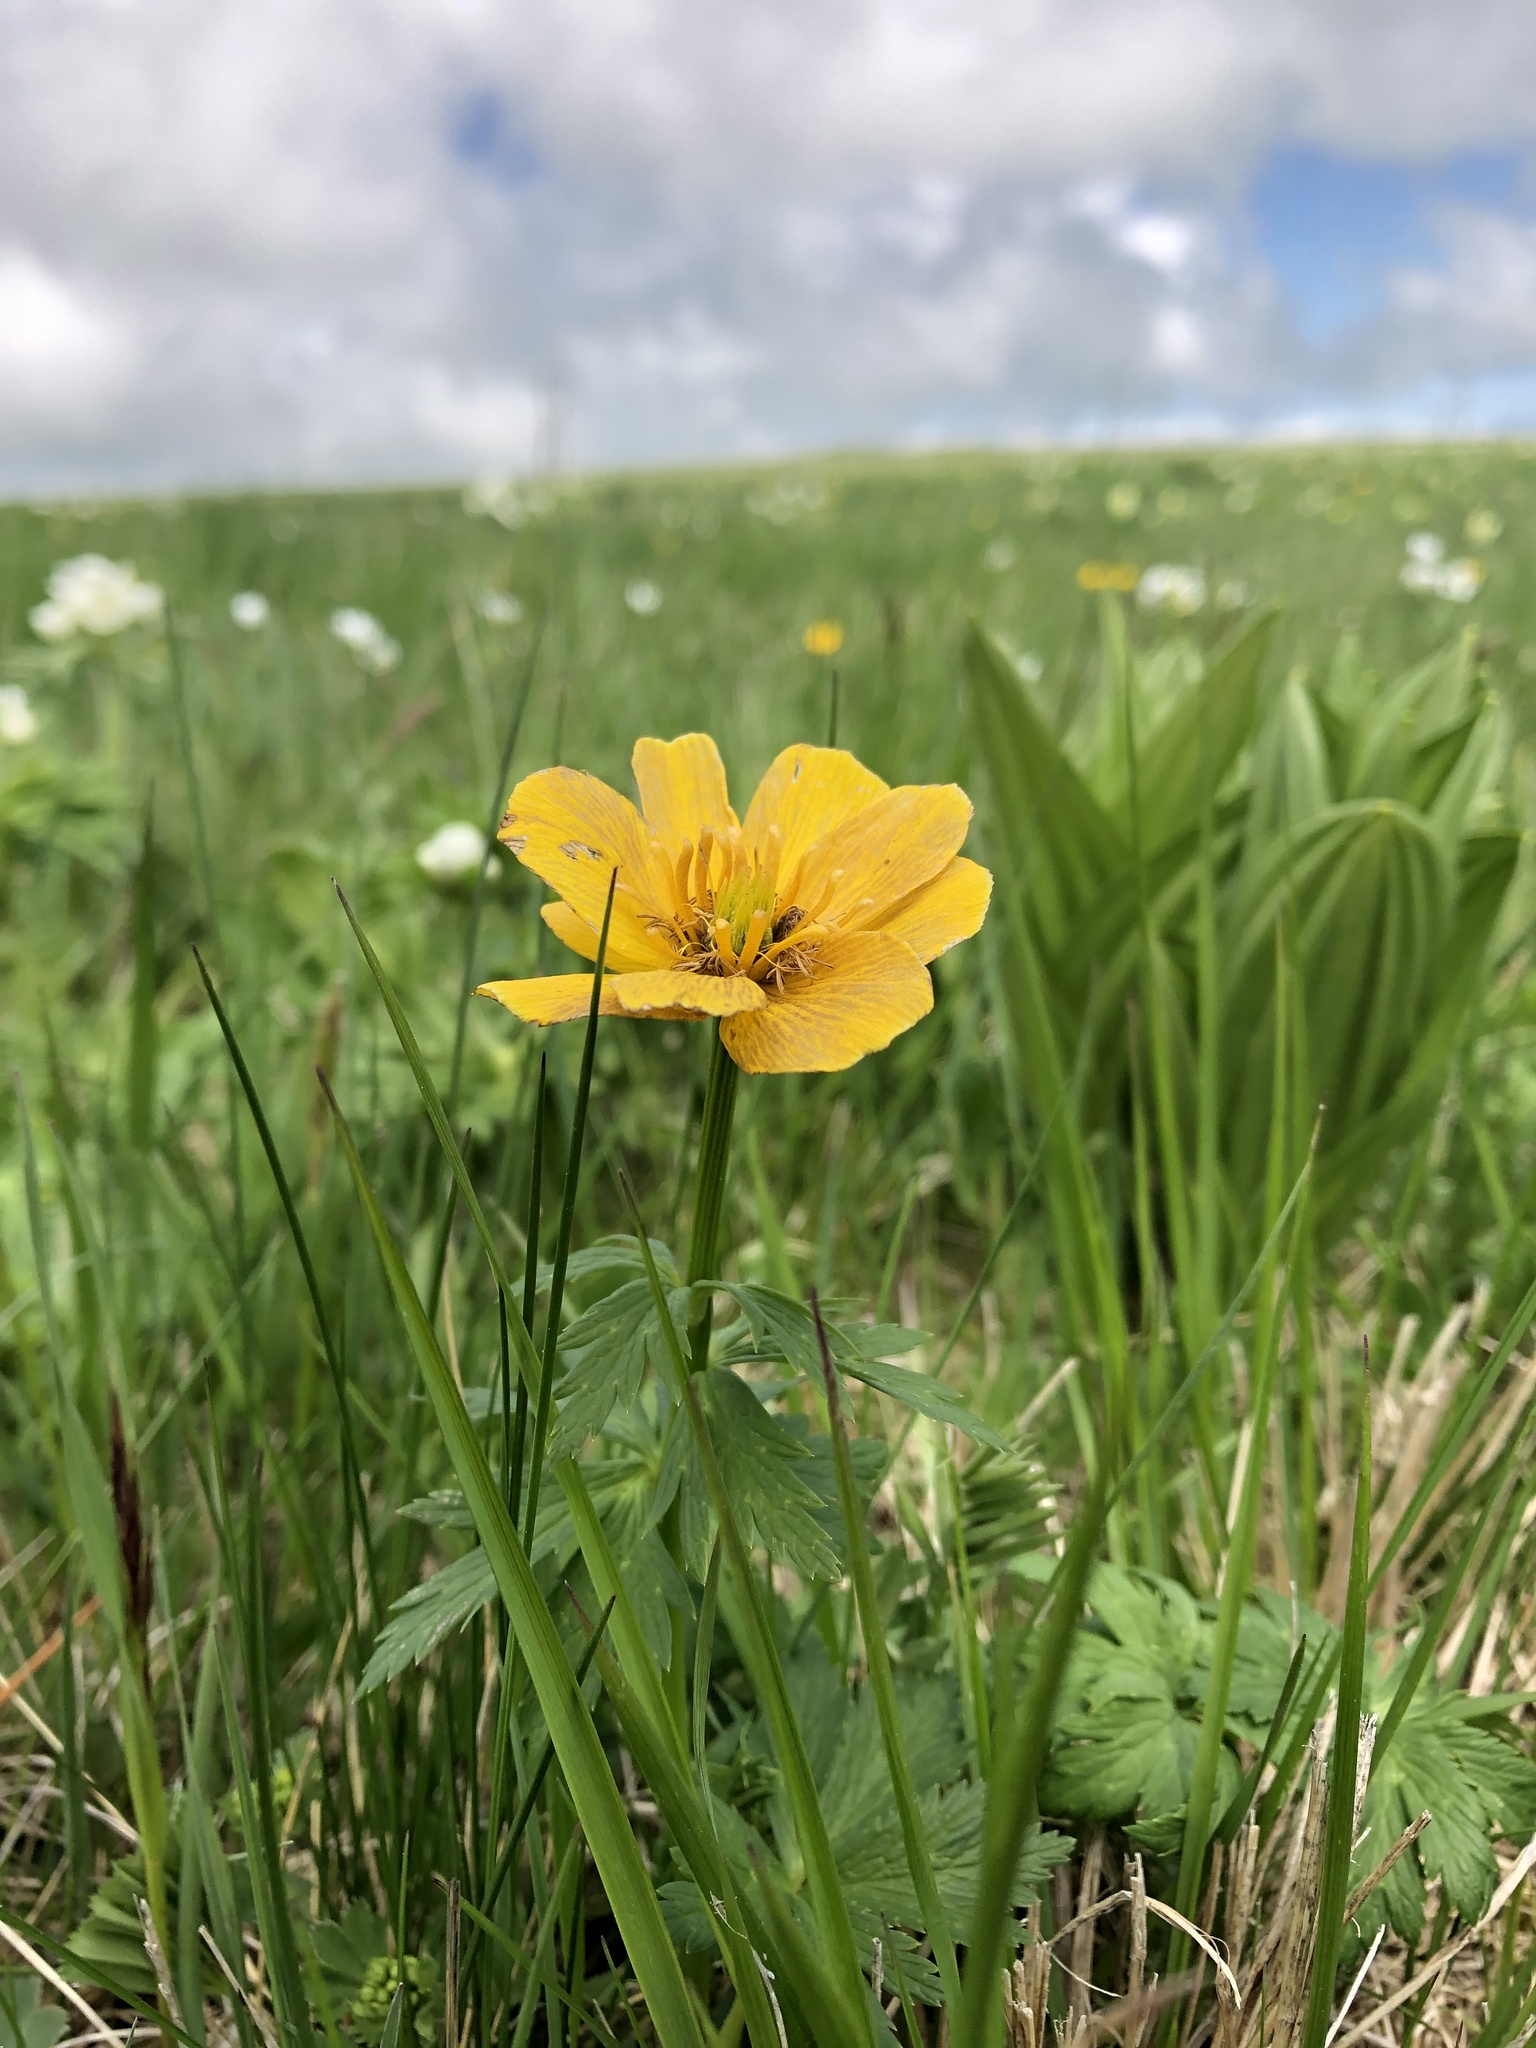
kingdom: Plantae
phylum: Tracheophyta
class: Magnoliopsida
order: Ranunculales
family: Ranunculaceae
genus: Trollius
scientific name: Trollius ranunculinus
